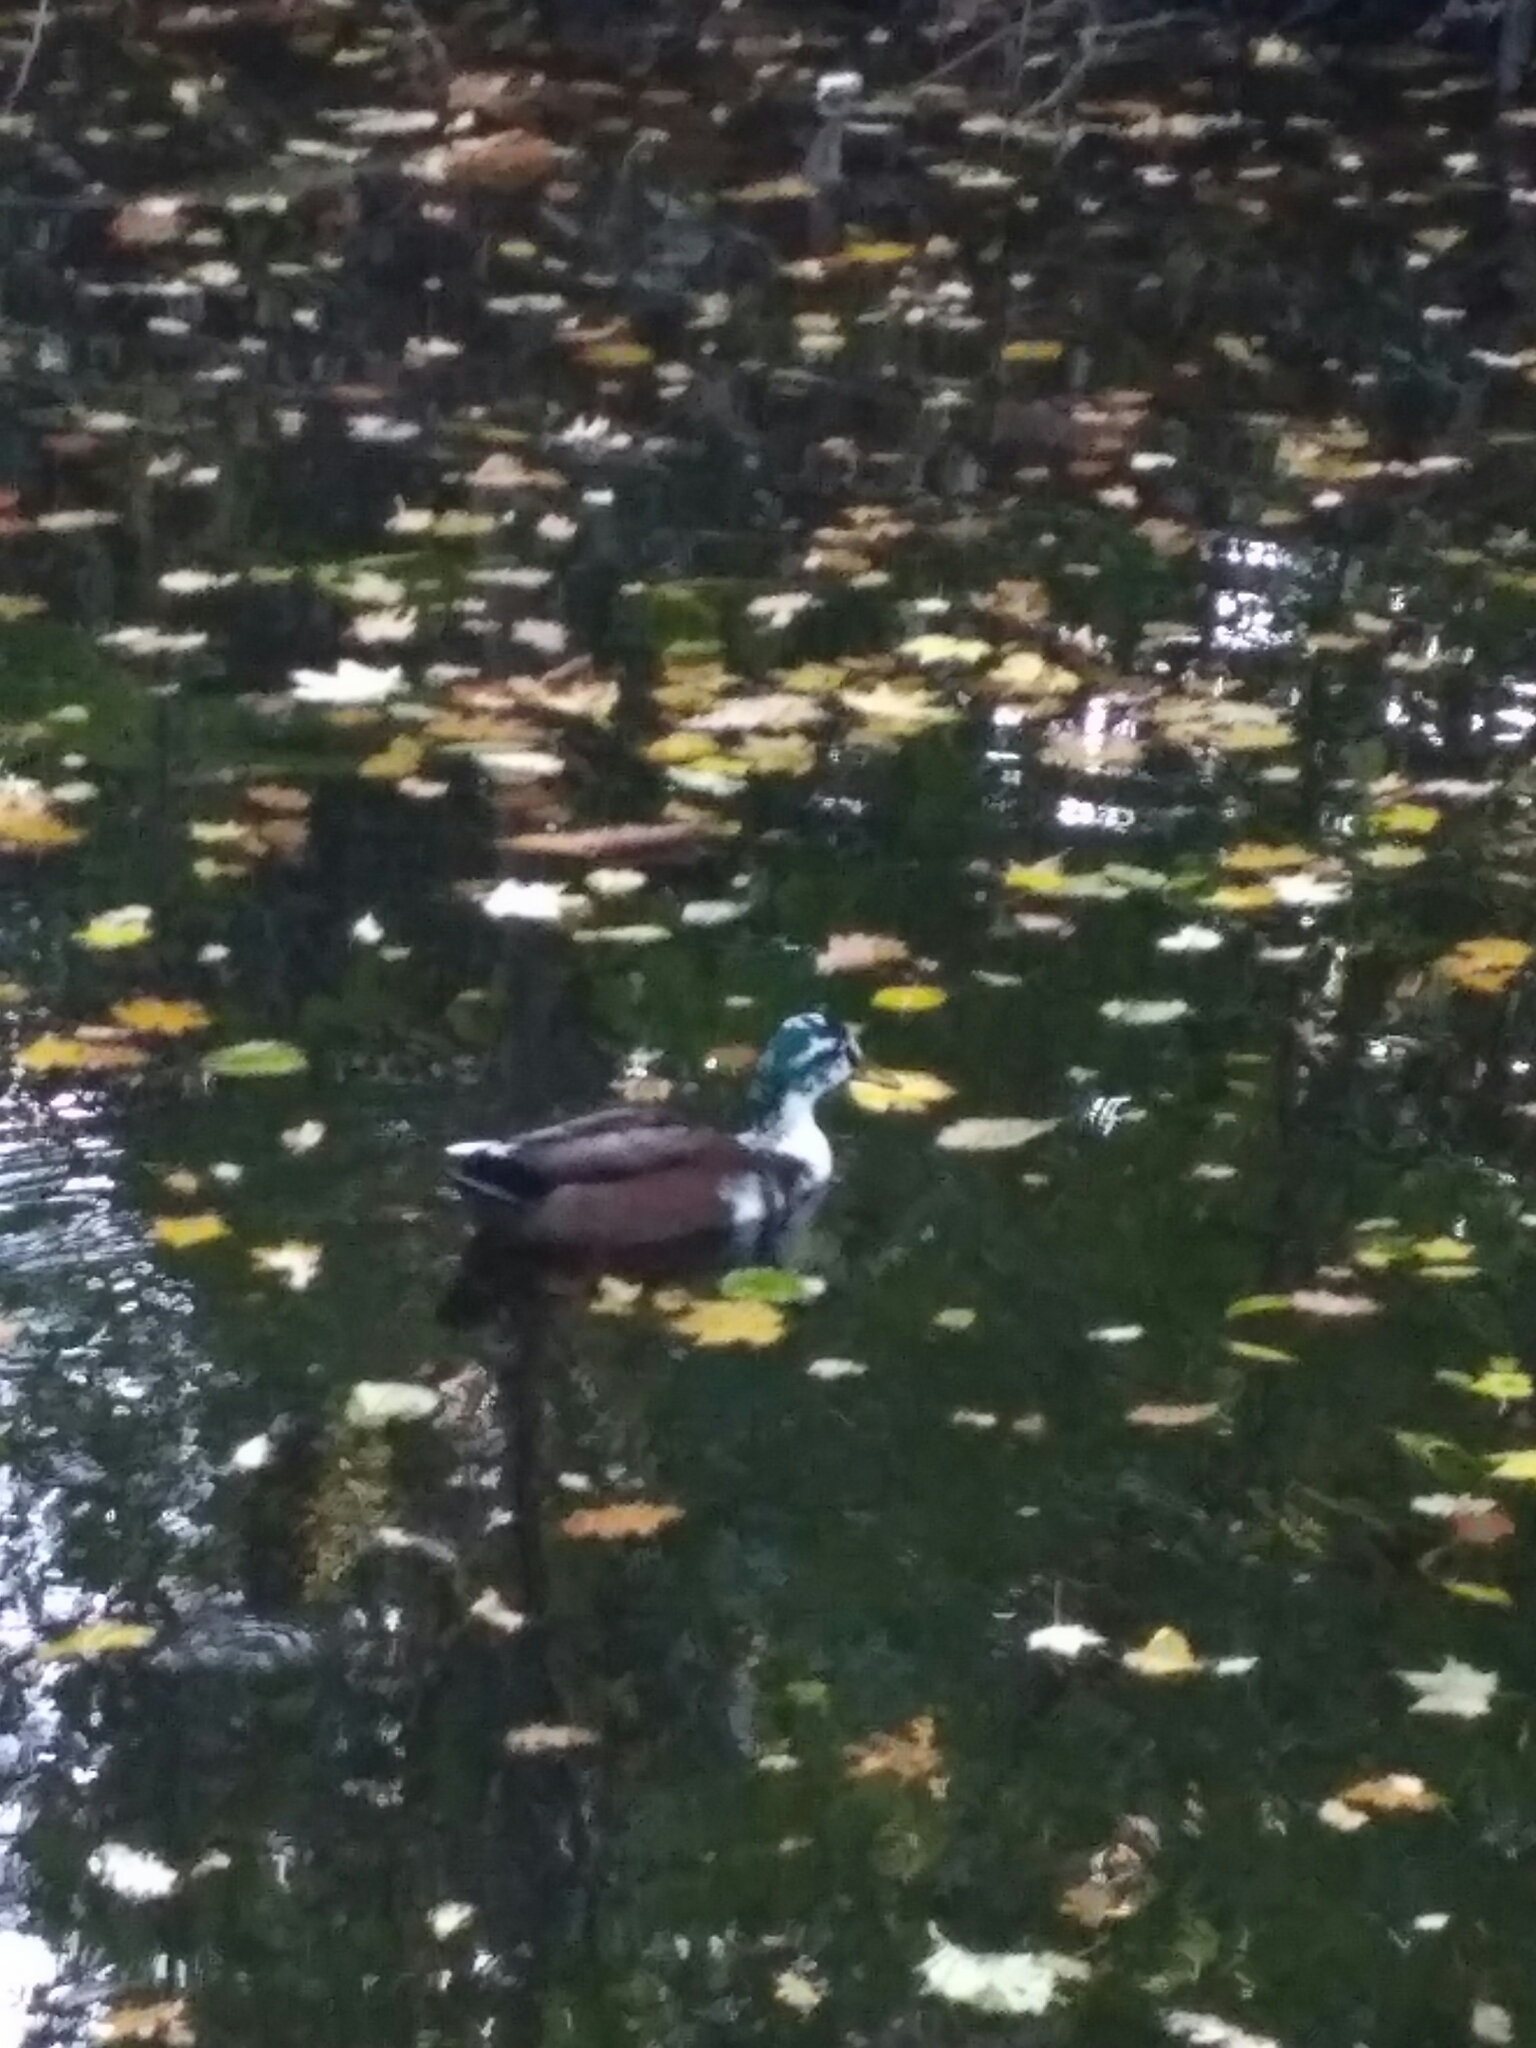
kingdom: Animalia
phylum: Chordata
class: Aves
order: Anseriformes
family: Anatidae
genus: Anas
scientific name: Anas platyrhynchos
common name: Mallard
